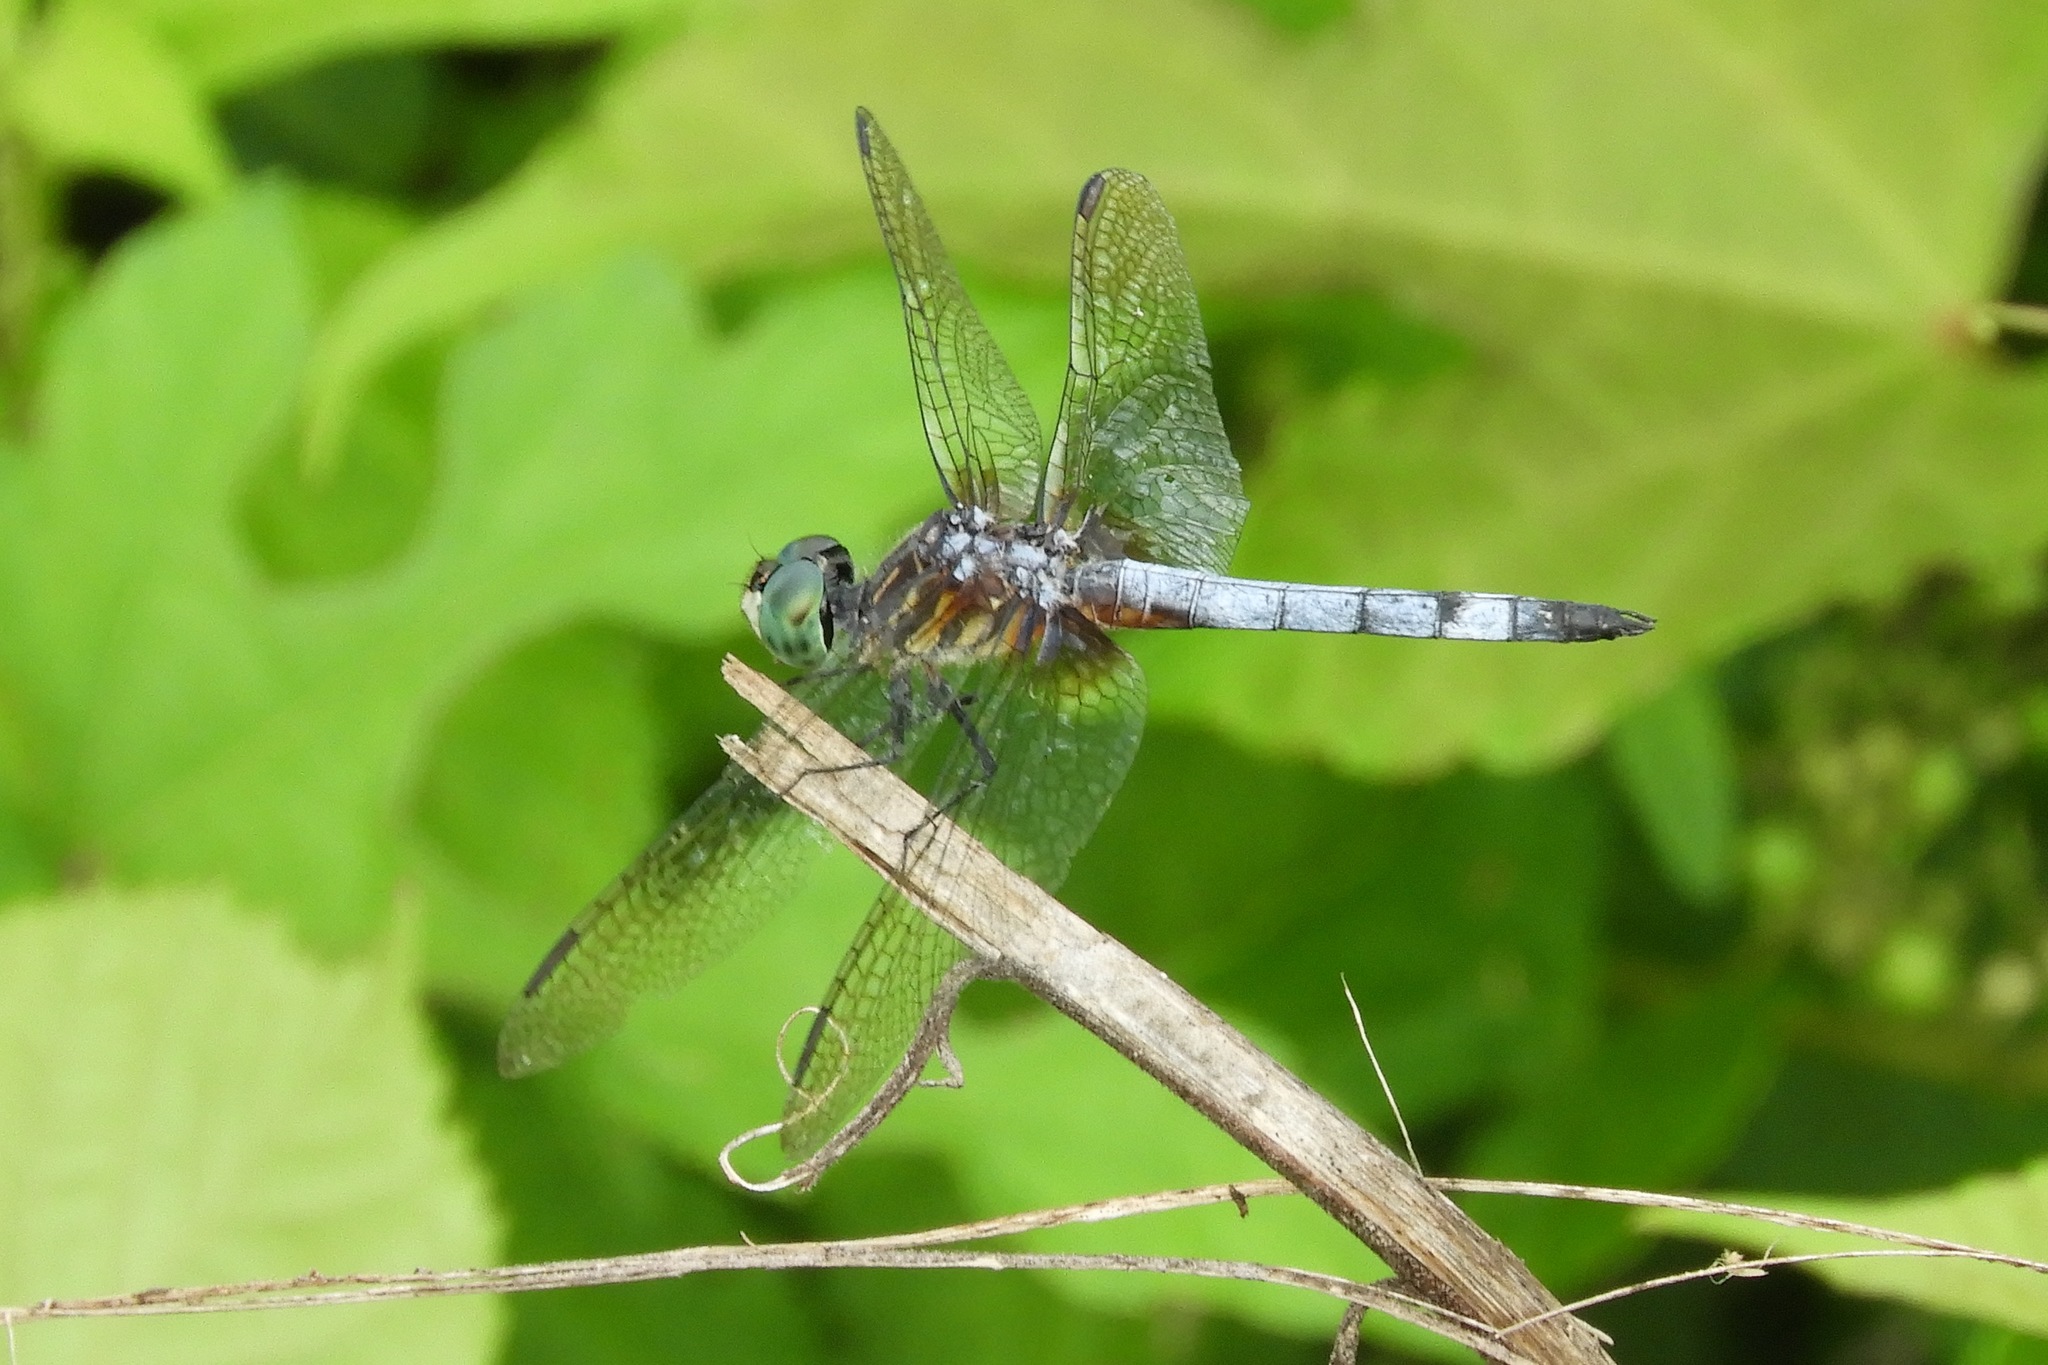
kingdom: Animalia
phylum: Arthropoda
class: Insecta
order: Odonata
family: Libellulidae
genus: Pachydiplax
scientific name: Pachydiplax longipennis
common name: Blue dasher
